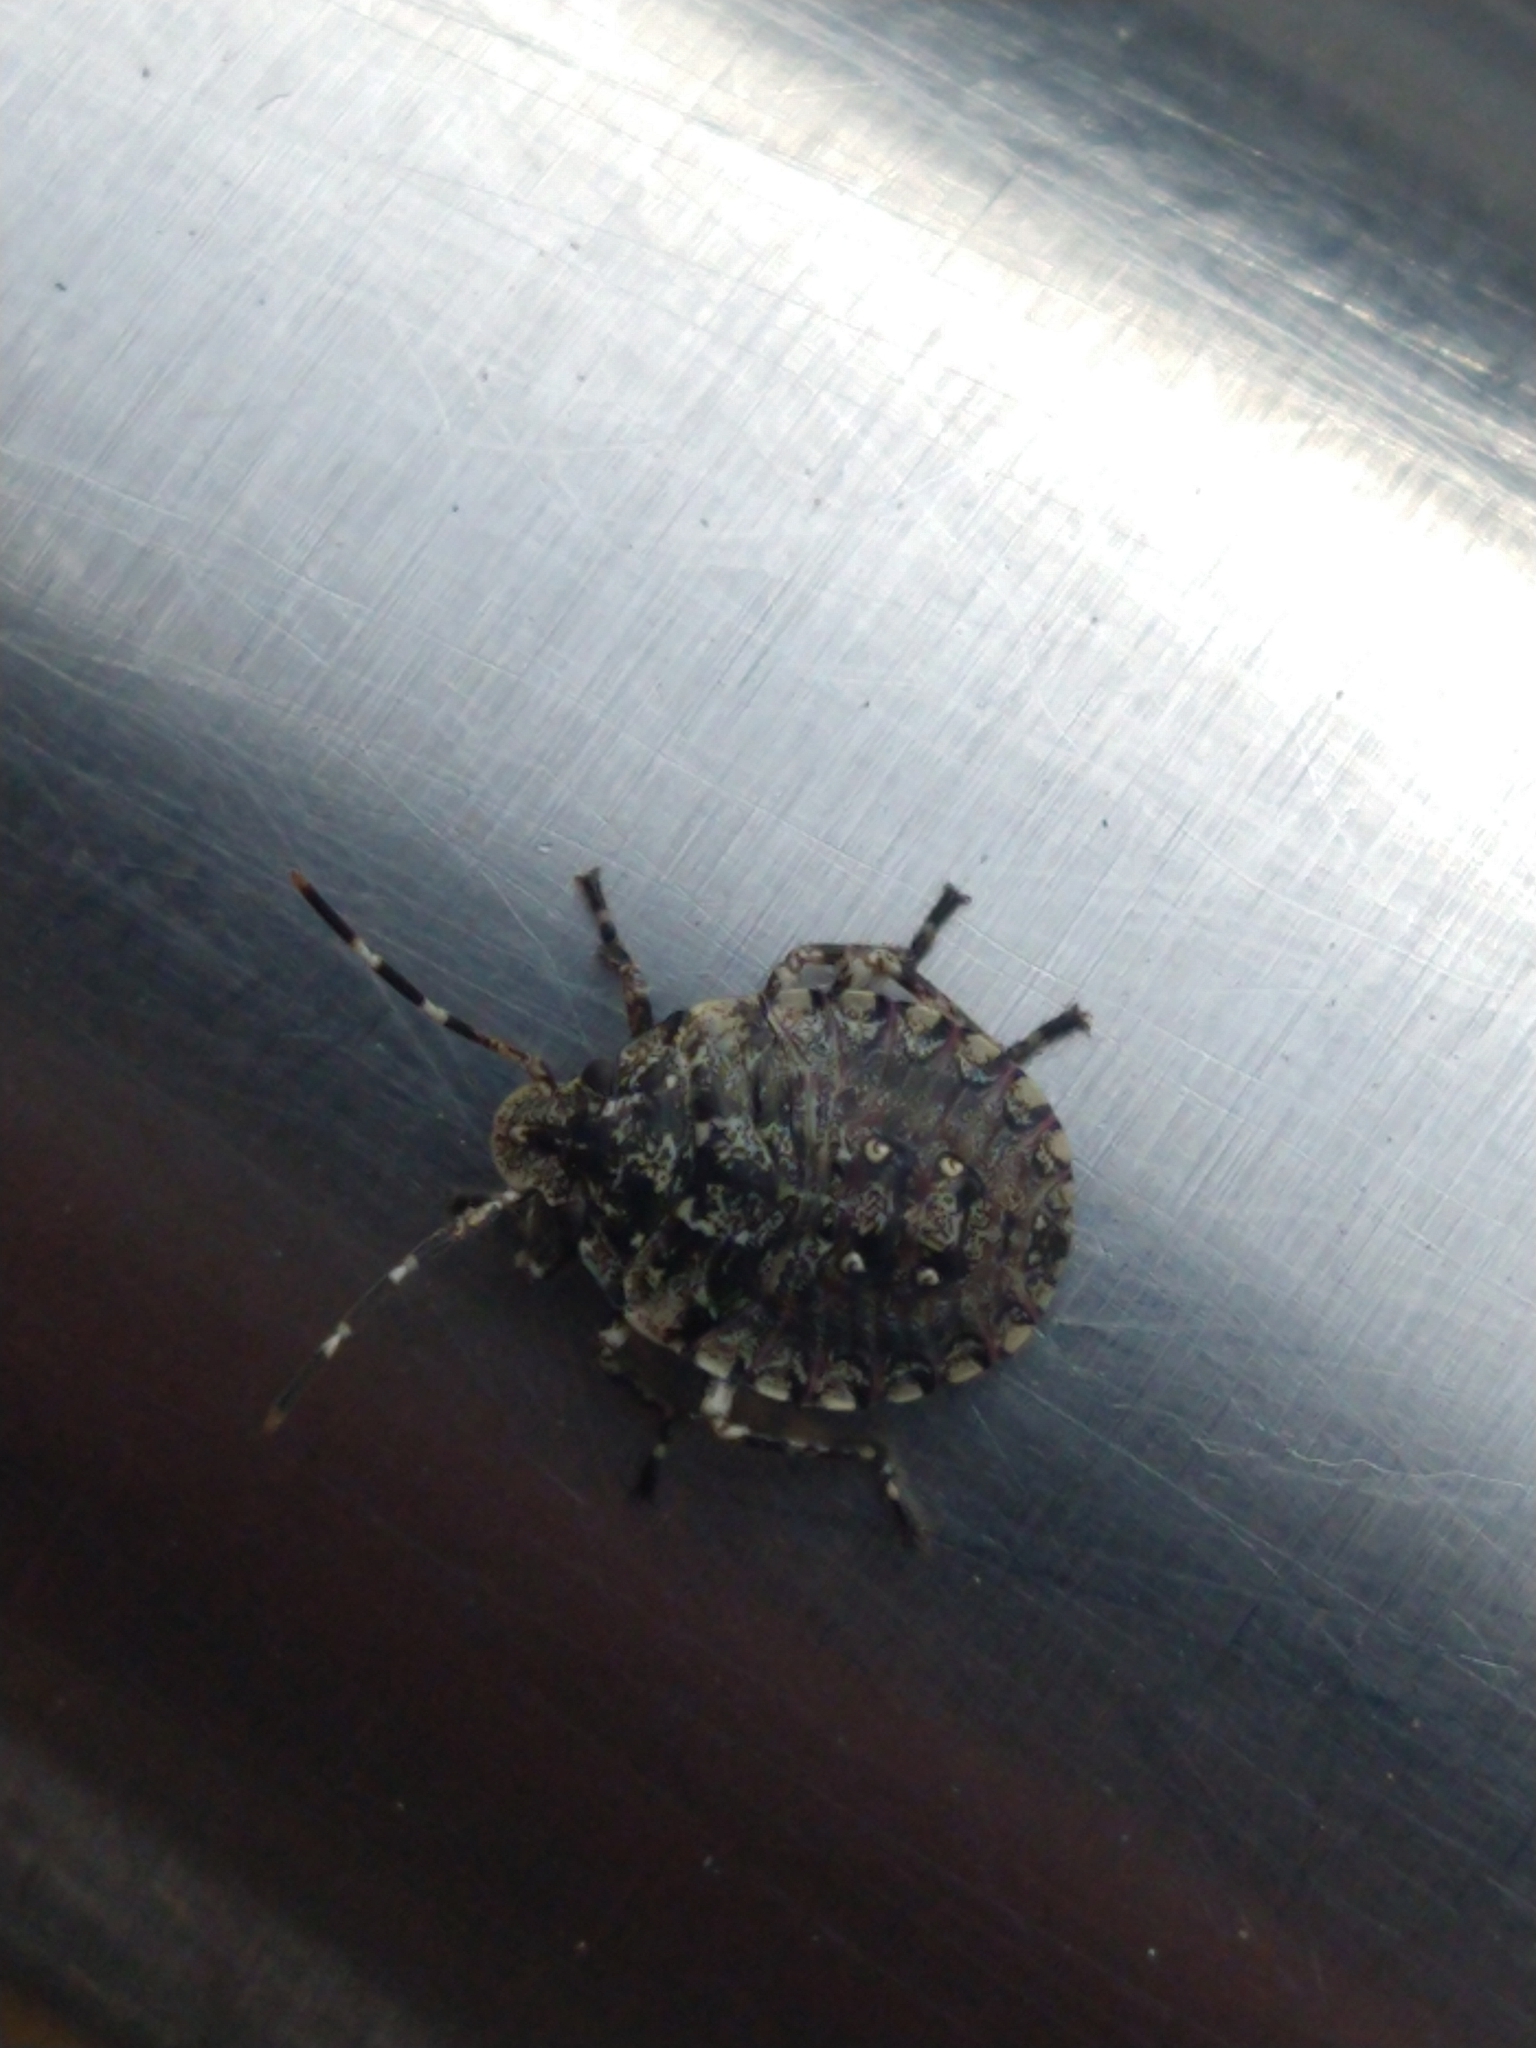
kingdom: Animalia
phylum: Arthropoda
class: Insecta
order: Hemiptera
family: Pentatomidae
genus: Antiteuchus
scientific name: Antiteuchus mixtus
